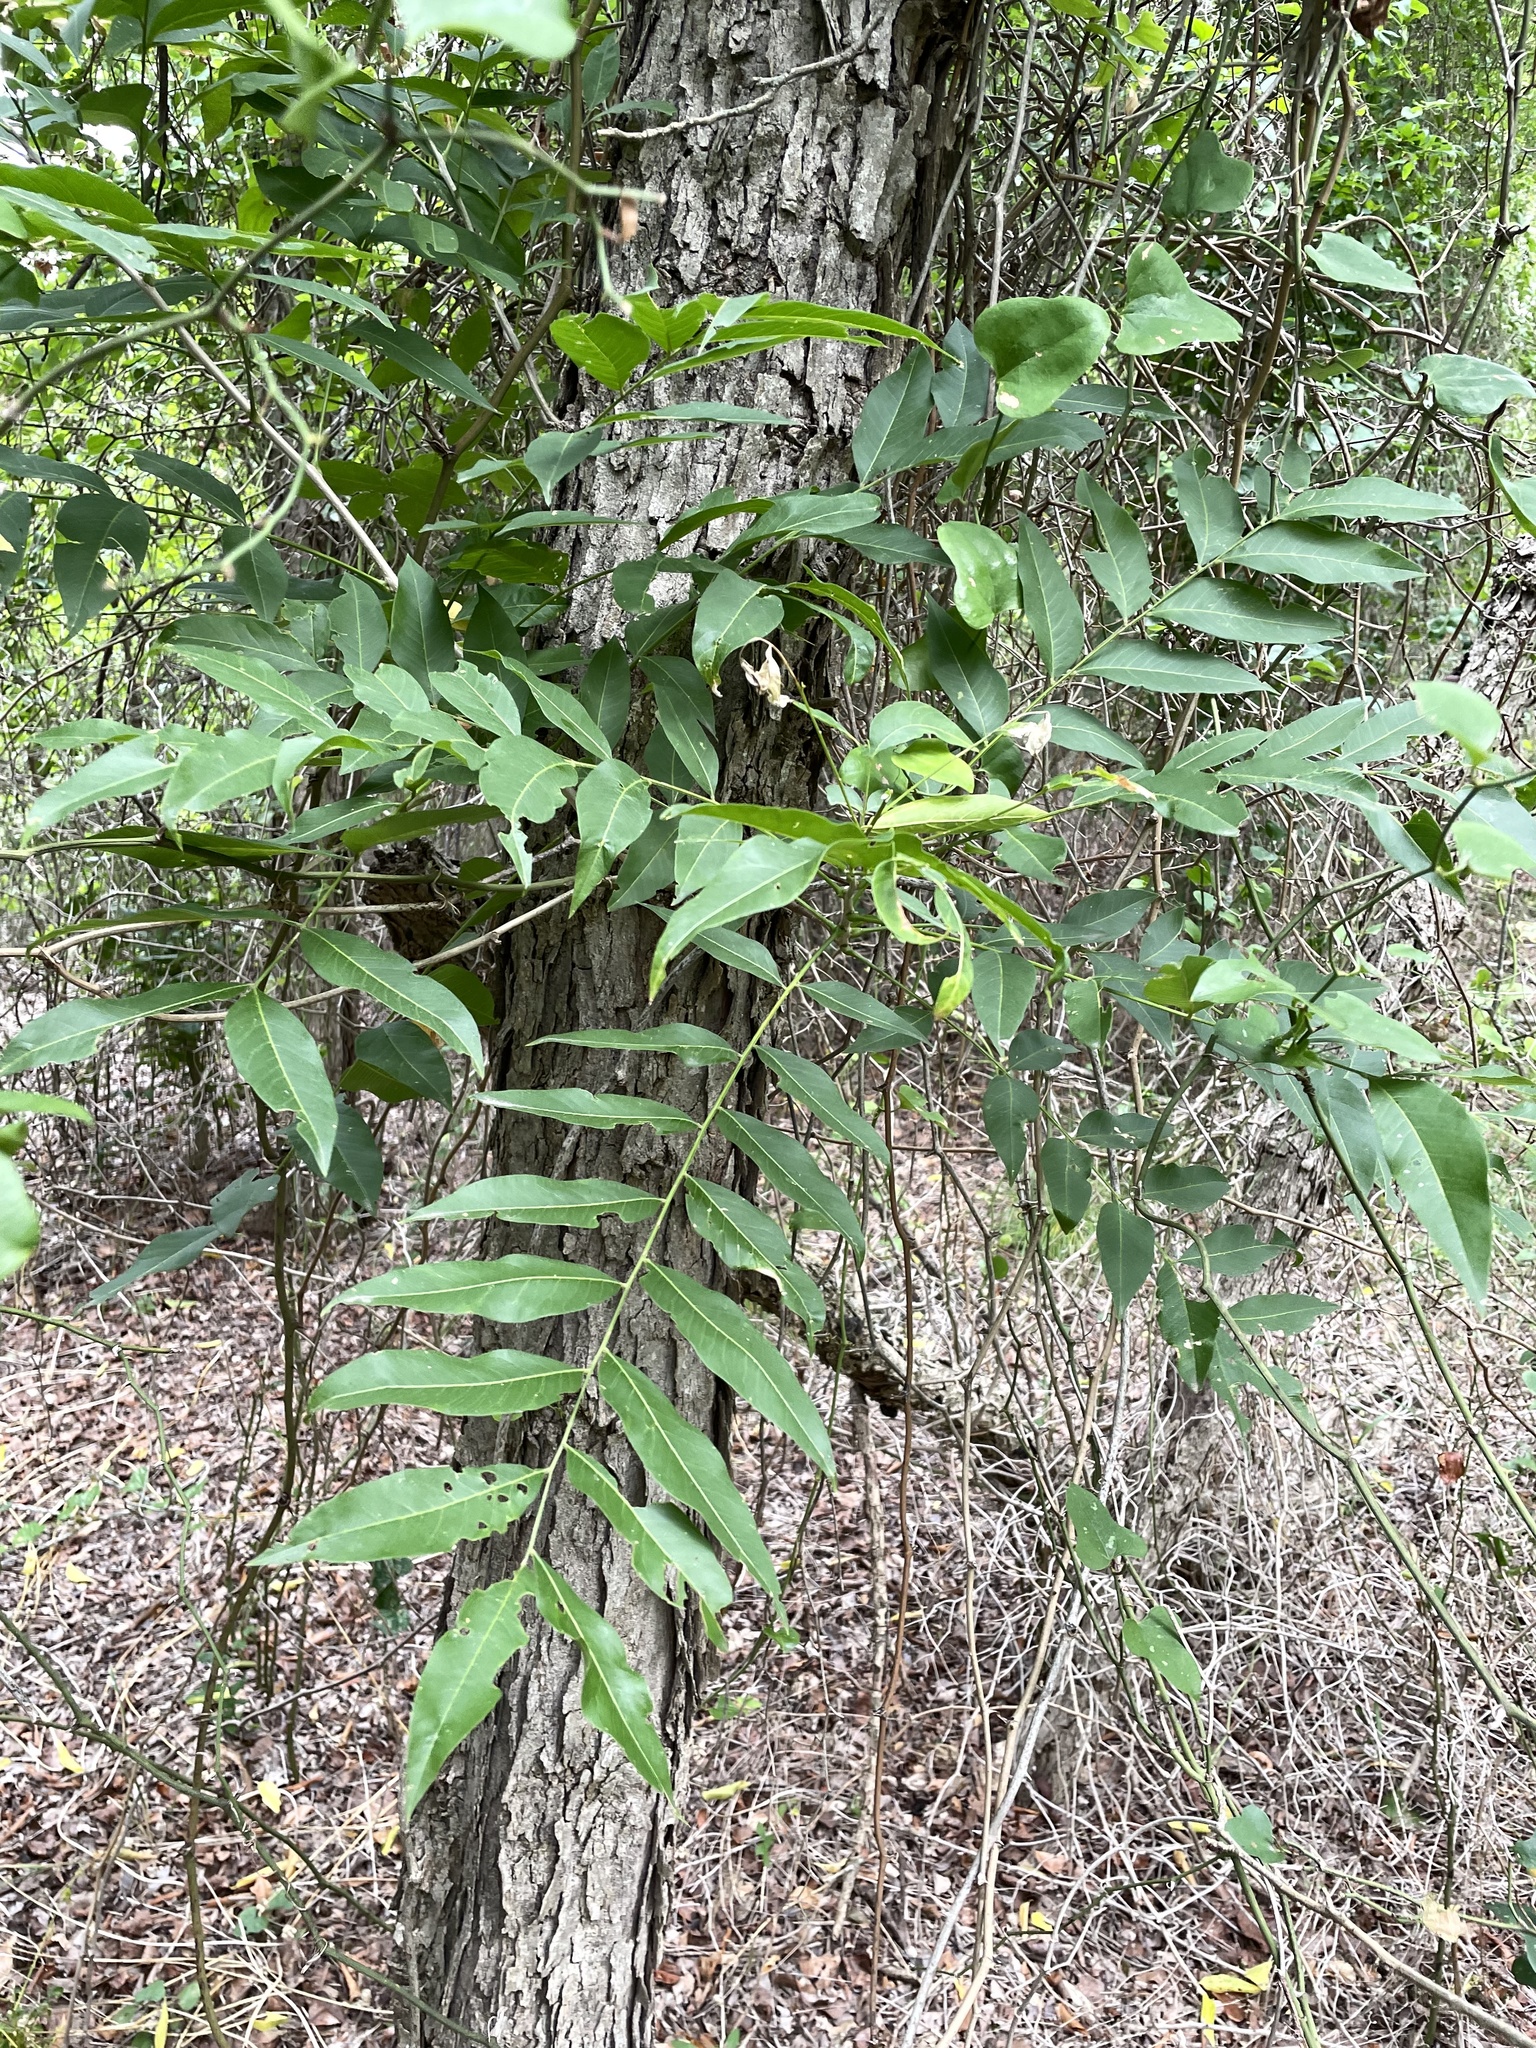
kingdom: Plantae
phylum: Tracheophyta
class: Magnoliopsida
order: Sapindales
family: Sapindaceae
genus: Sapindus
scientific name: Sapindus drummondii
